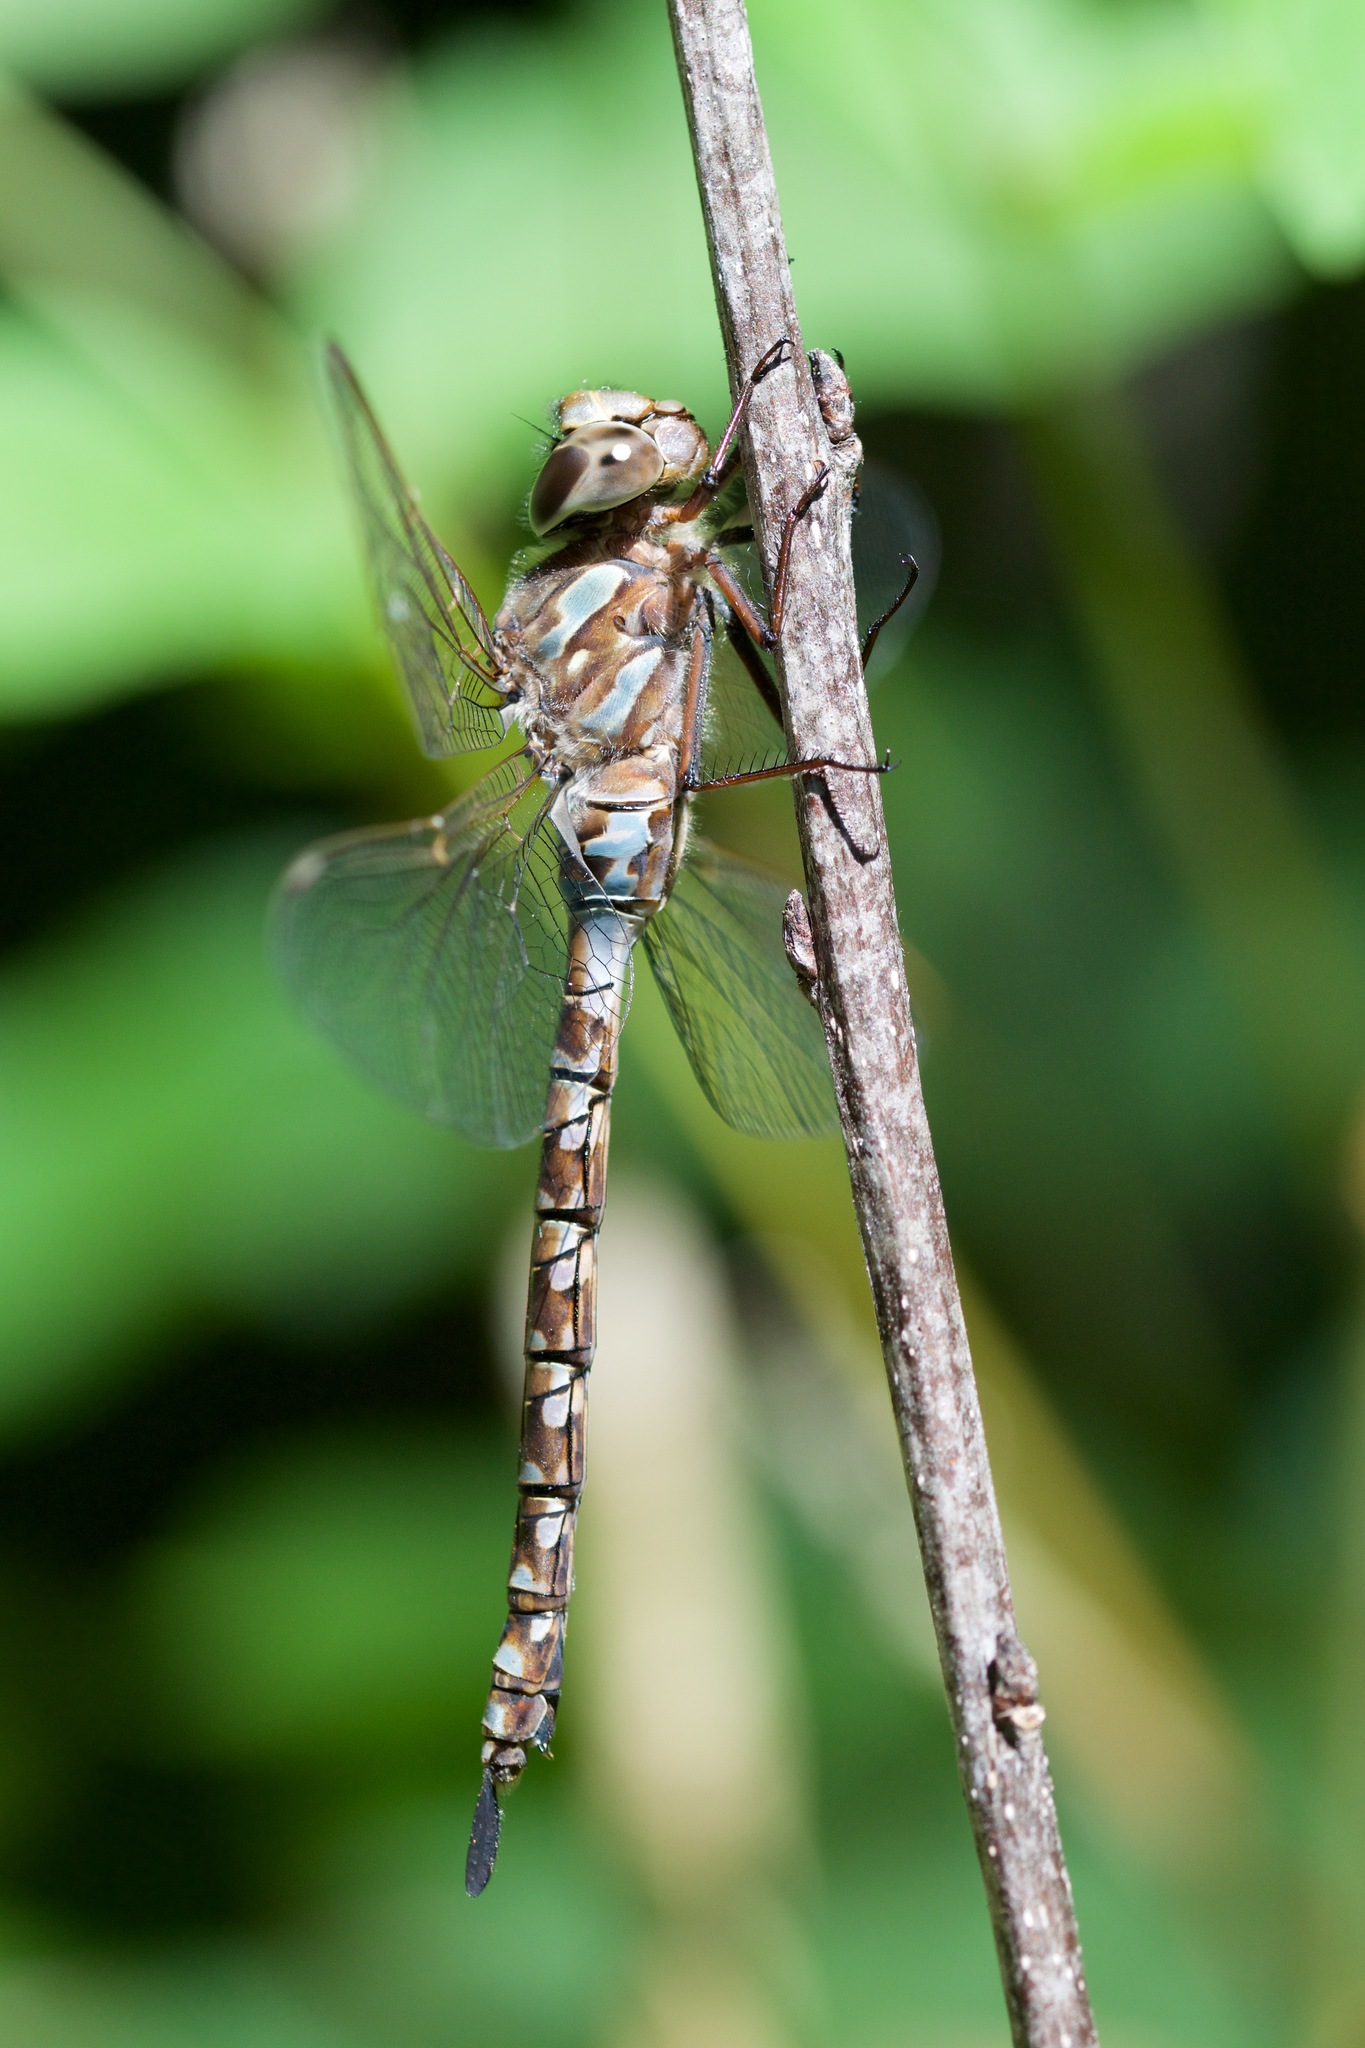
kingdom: Animalia
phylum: Arthropoda
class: Insecta
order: Odonata
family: Aeshnidae
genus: Aeshna
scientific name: Aeshna canadensis
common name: Canada darner
